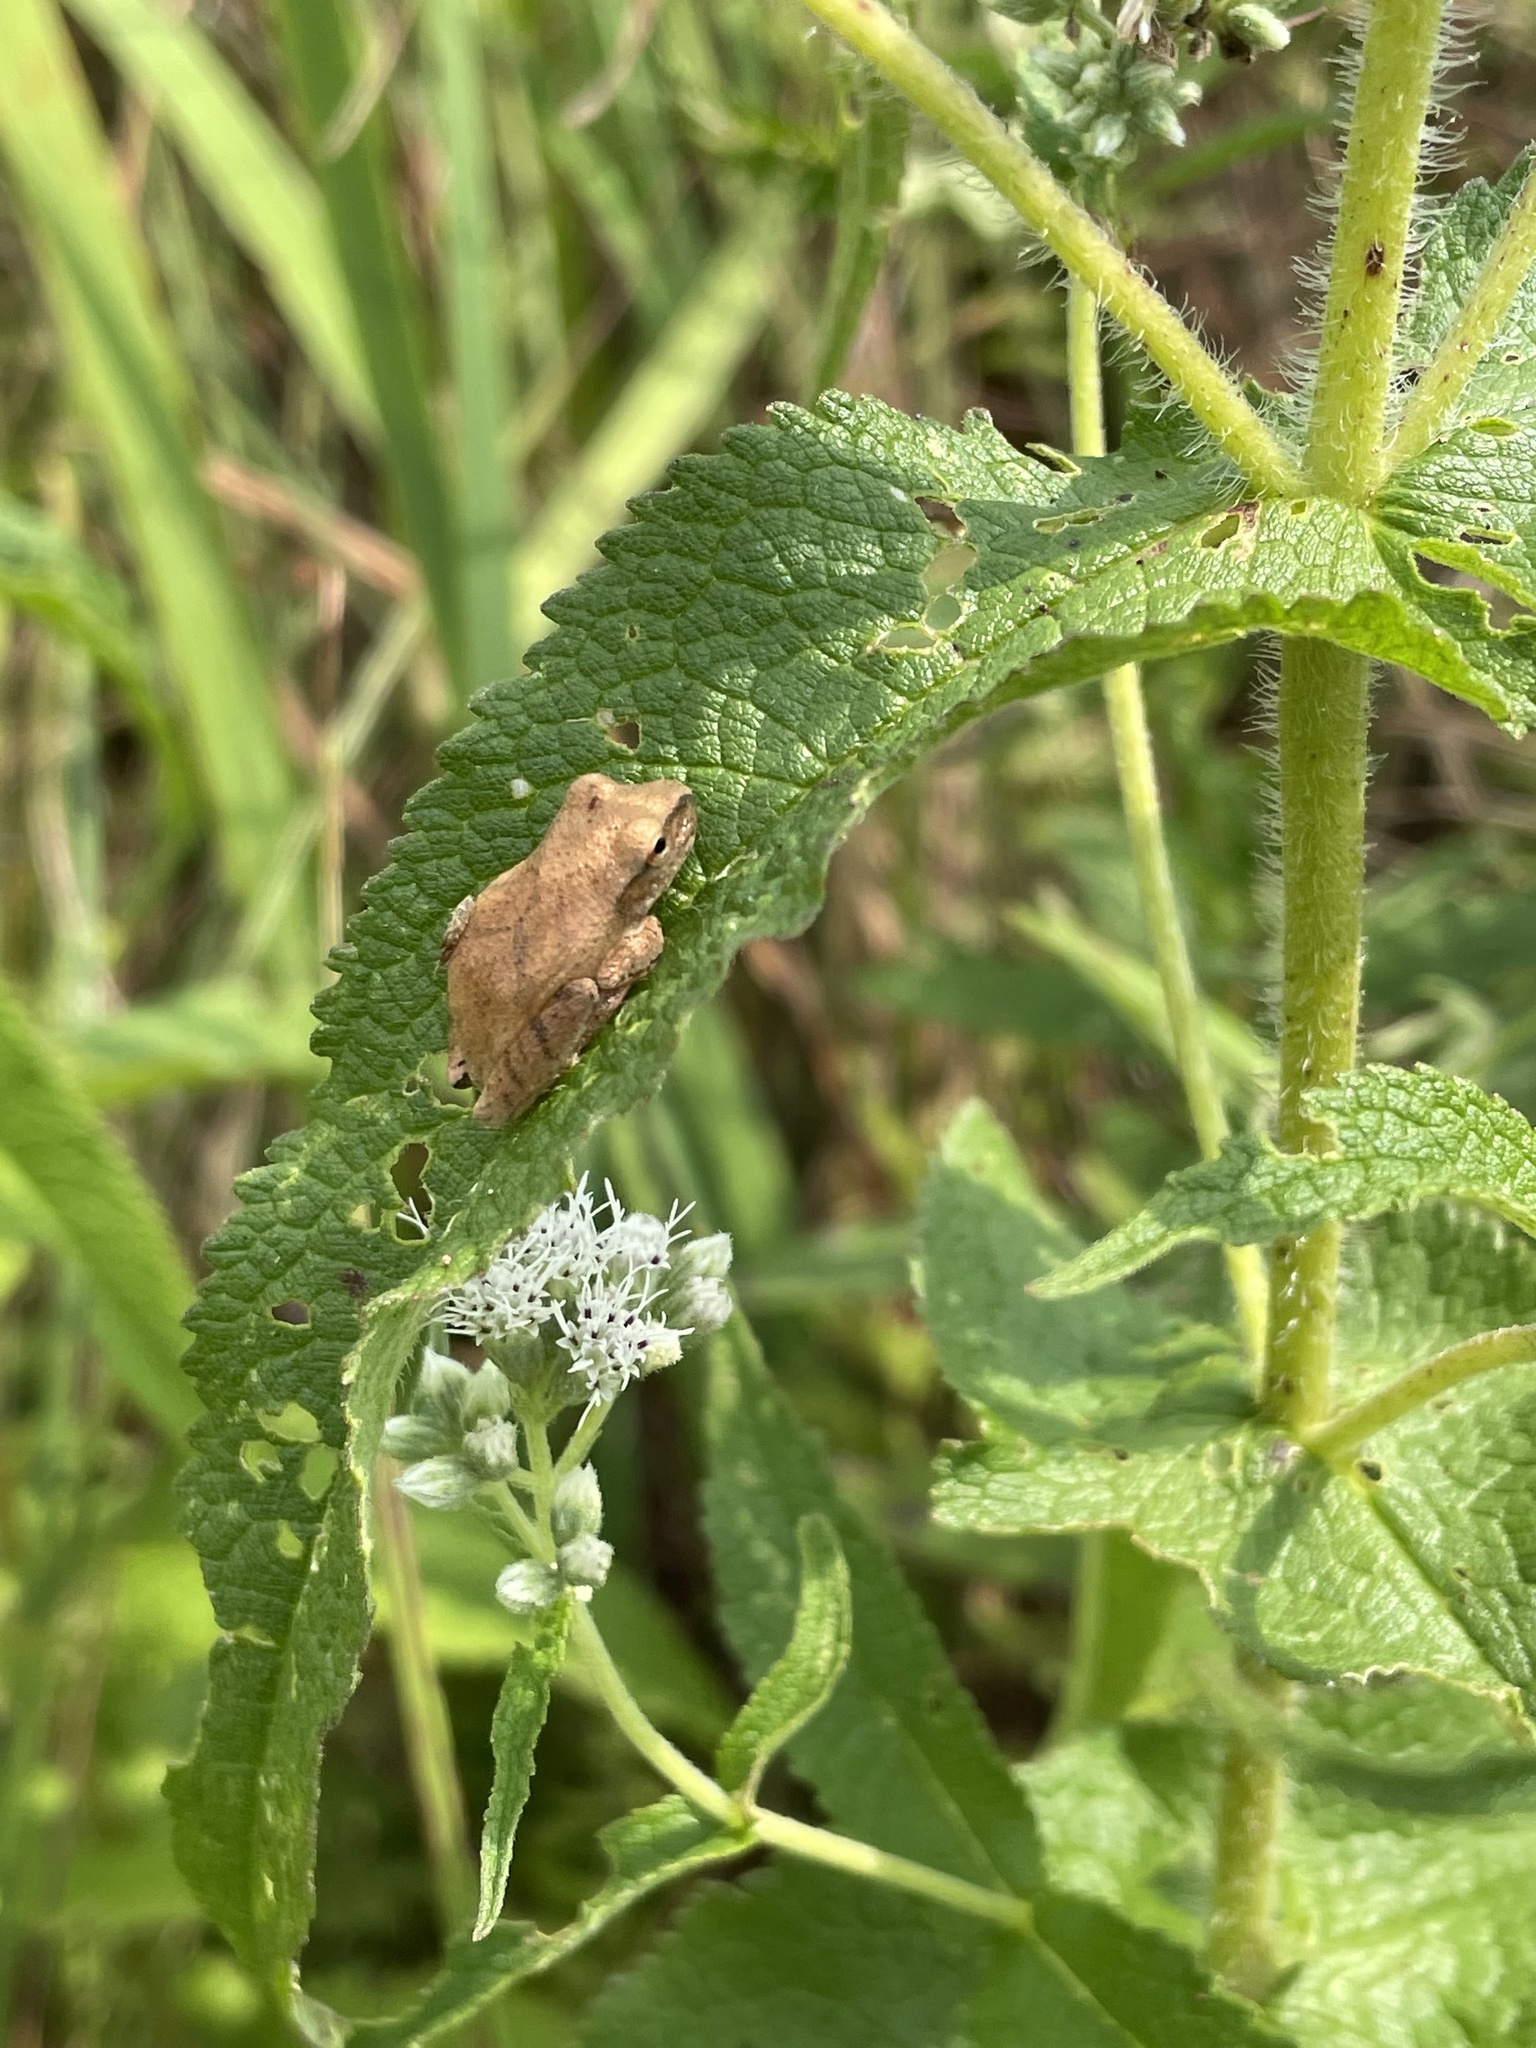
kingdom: Animalia
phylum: Chordata
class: Amphibia
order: Anura
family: Hylidae
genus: Pseudacris
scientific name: Pseudacris crucifer
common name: Spring peeper
